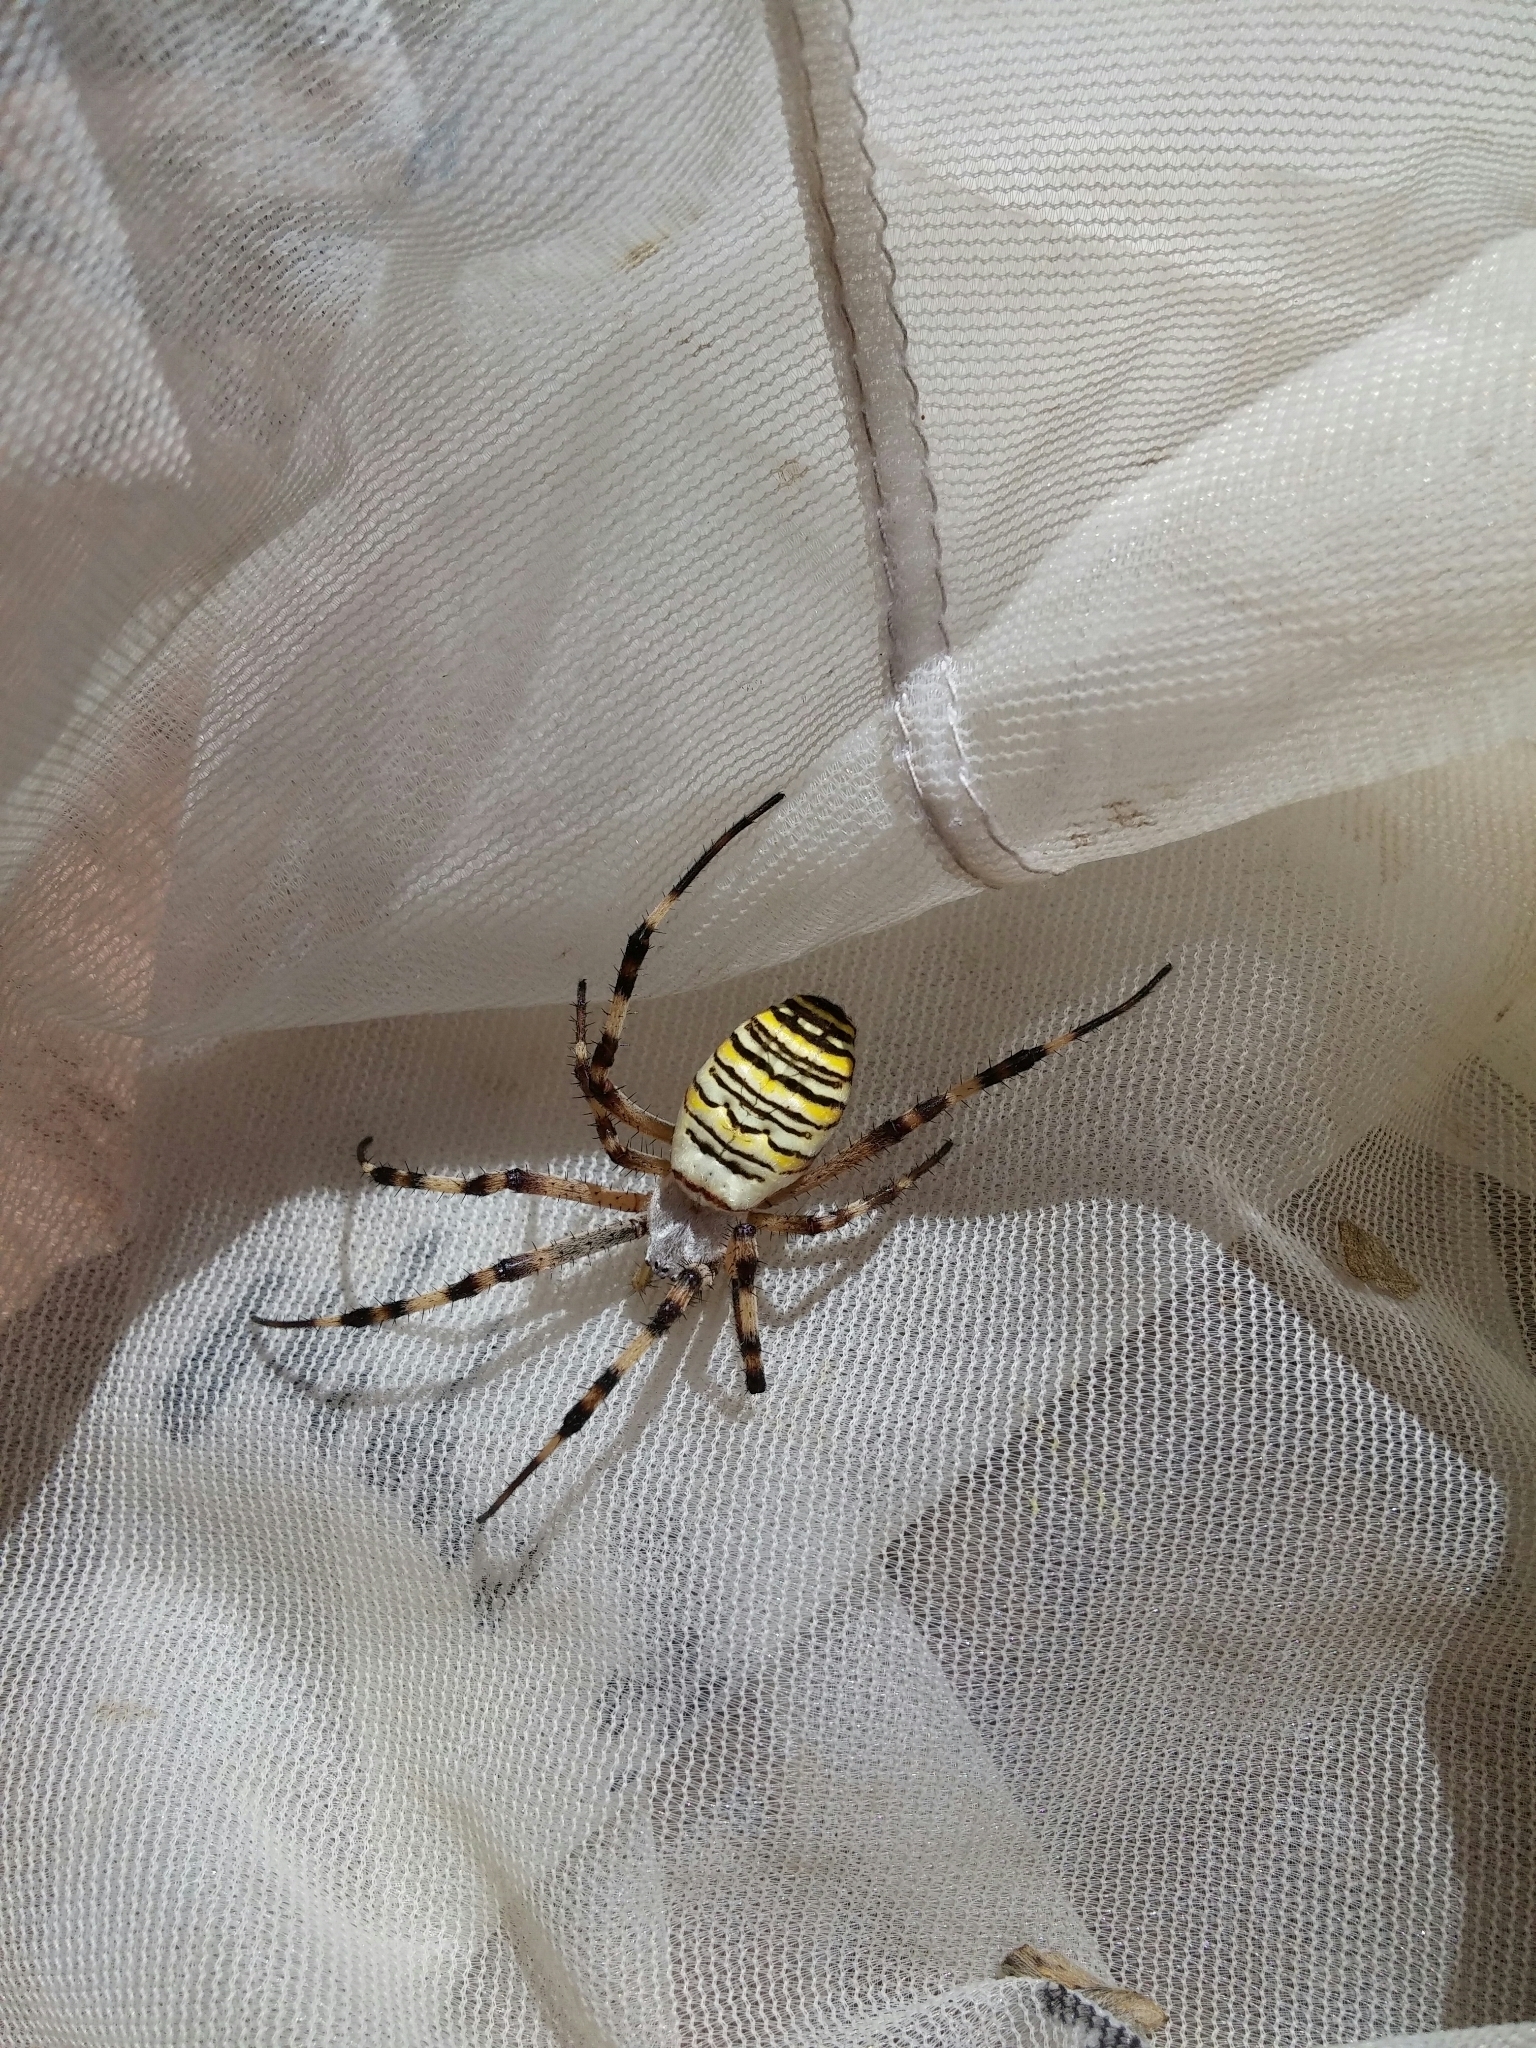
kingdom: Animalia
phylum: Arthropoda
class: Arachnida
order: Araneae
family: Araneidae
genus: Argiope
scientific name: Argiope bruennichi
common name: Wasp spider
